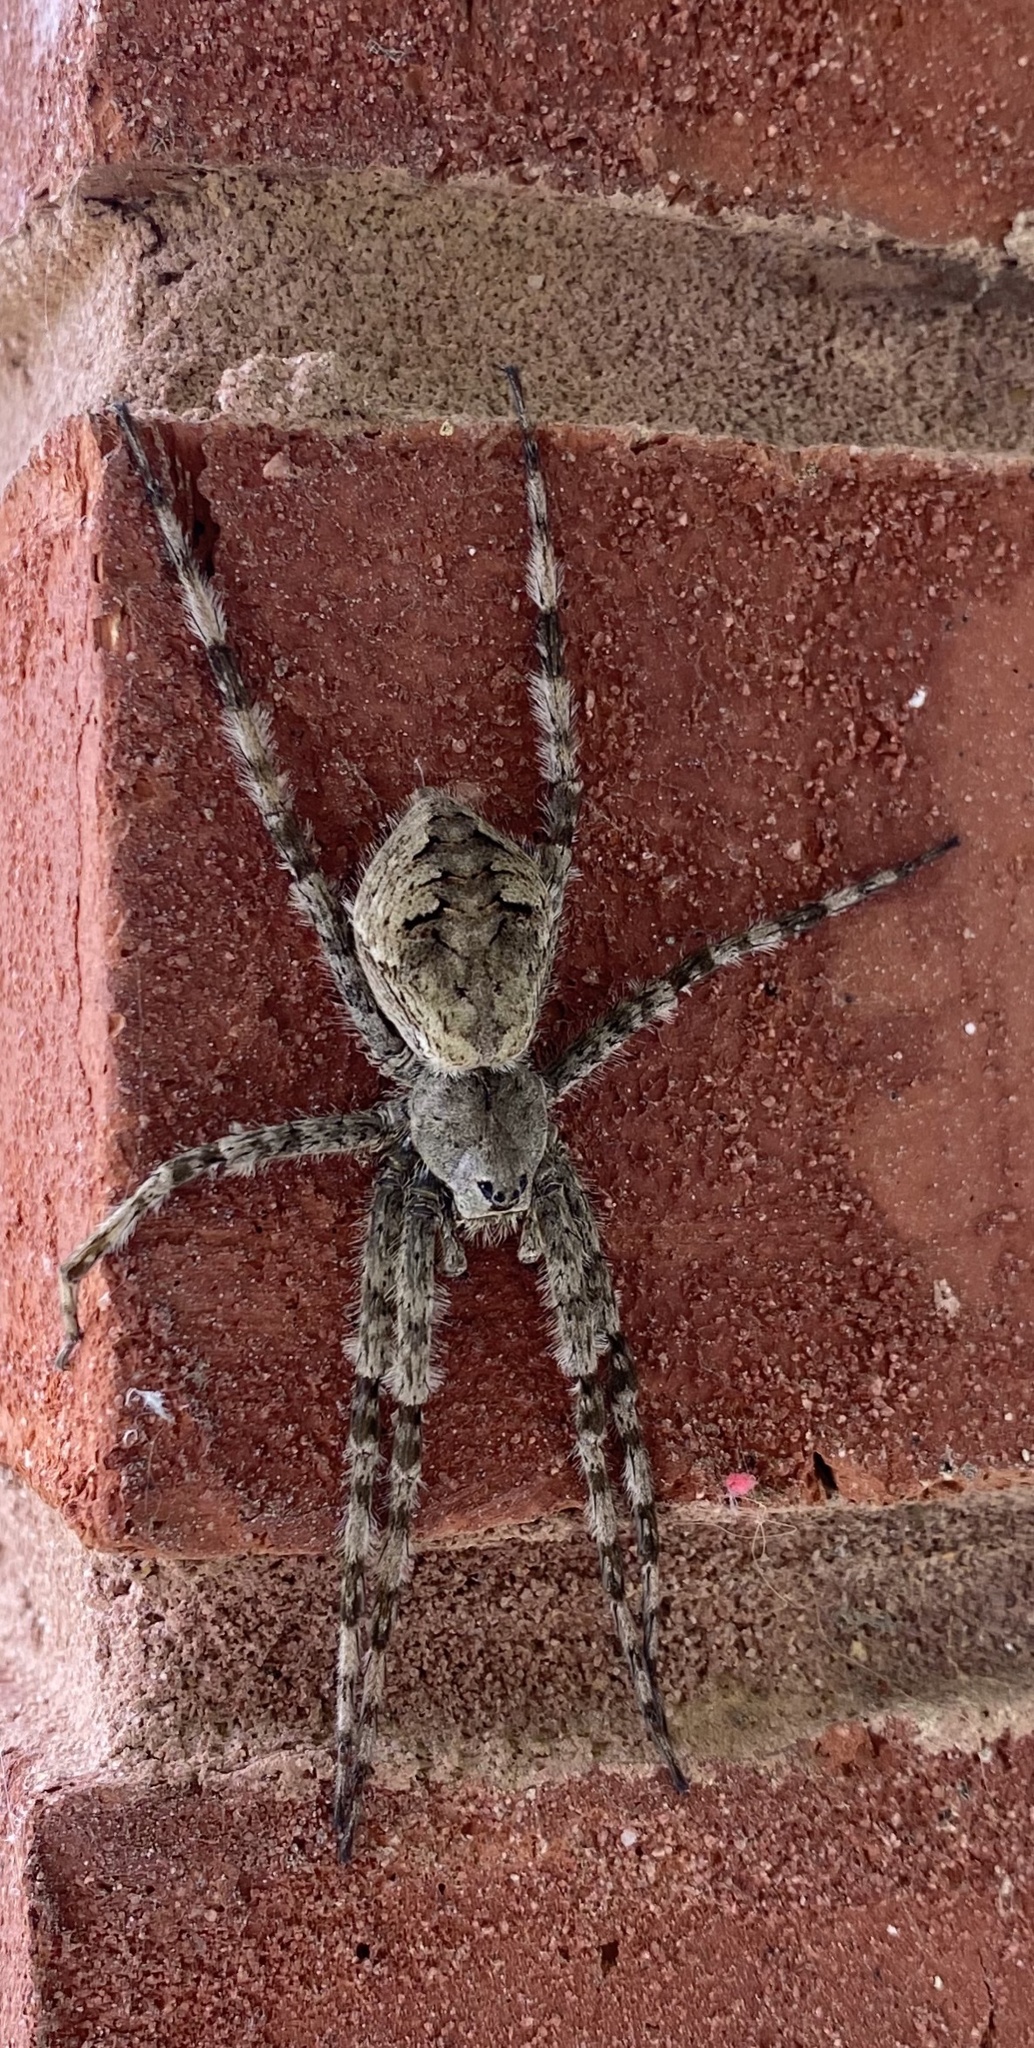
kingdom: Animalia
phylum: Arthropoda
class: Arachnida
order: Araneae
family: Pisauridae
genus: Dolomedes
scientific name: Dolomedes albineus
